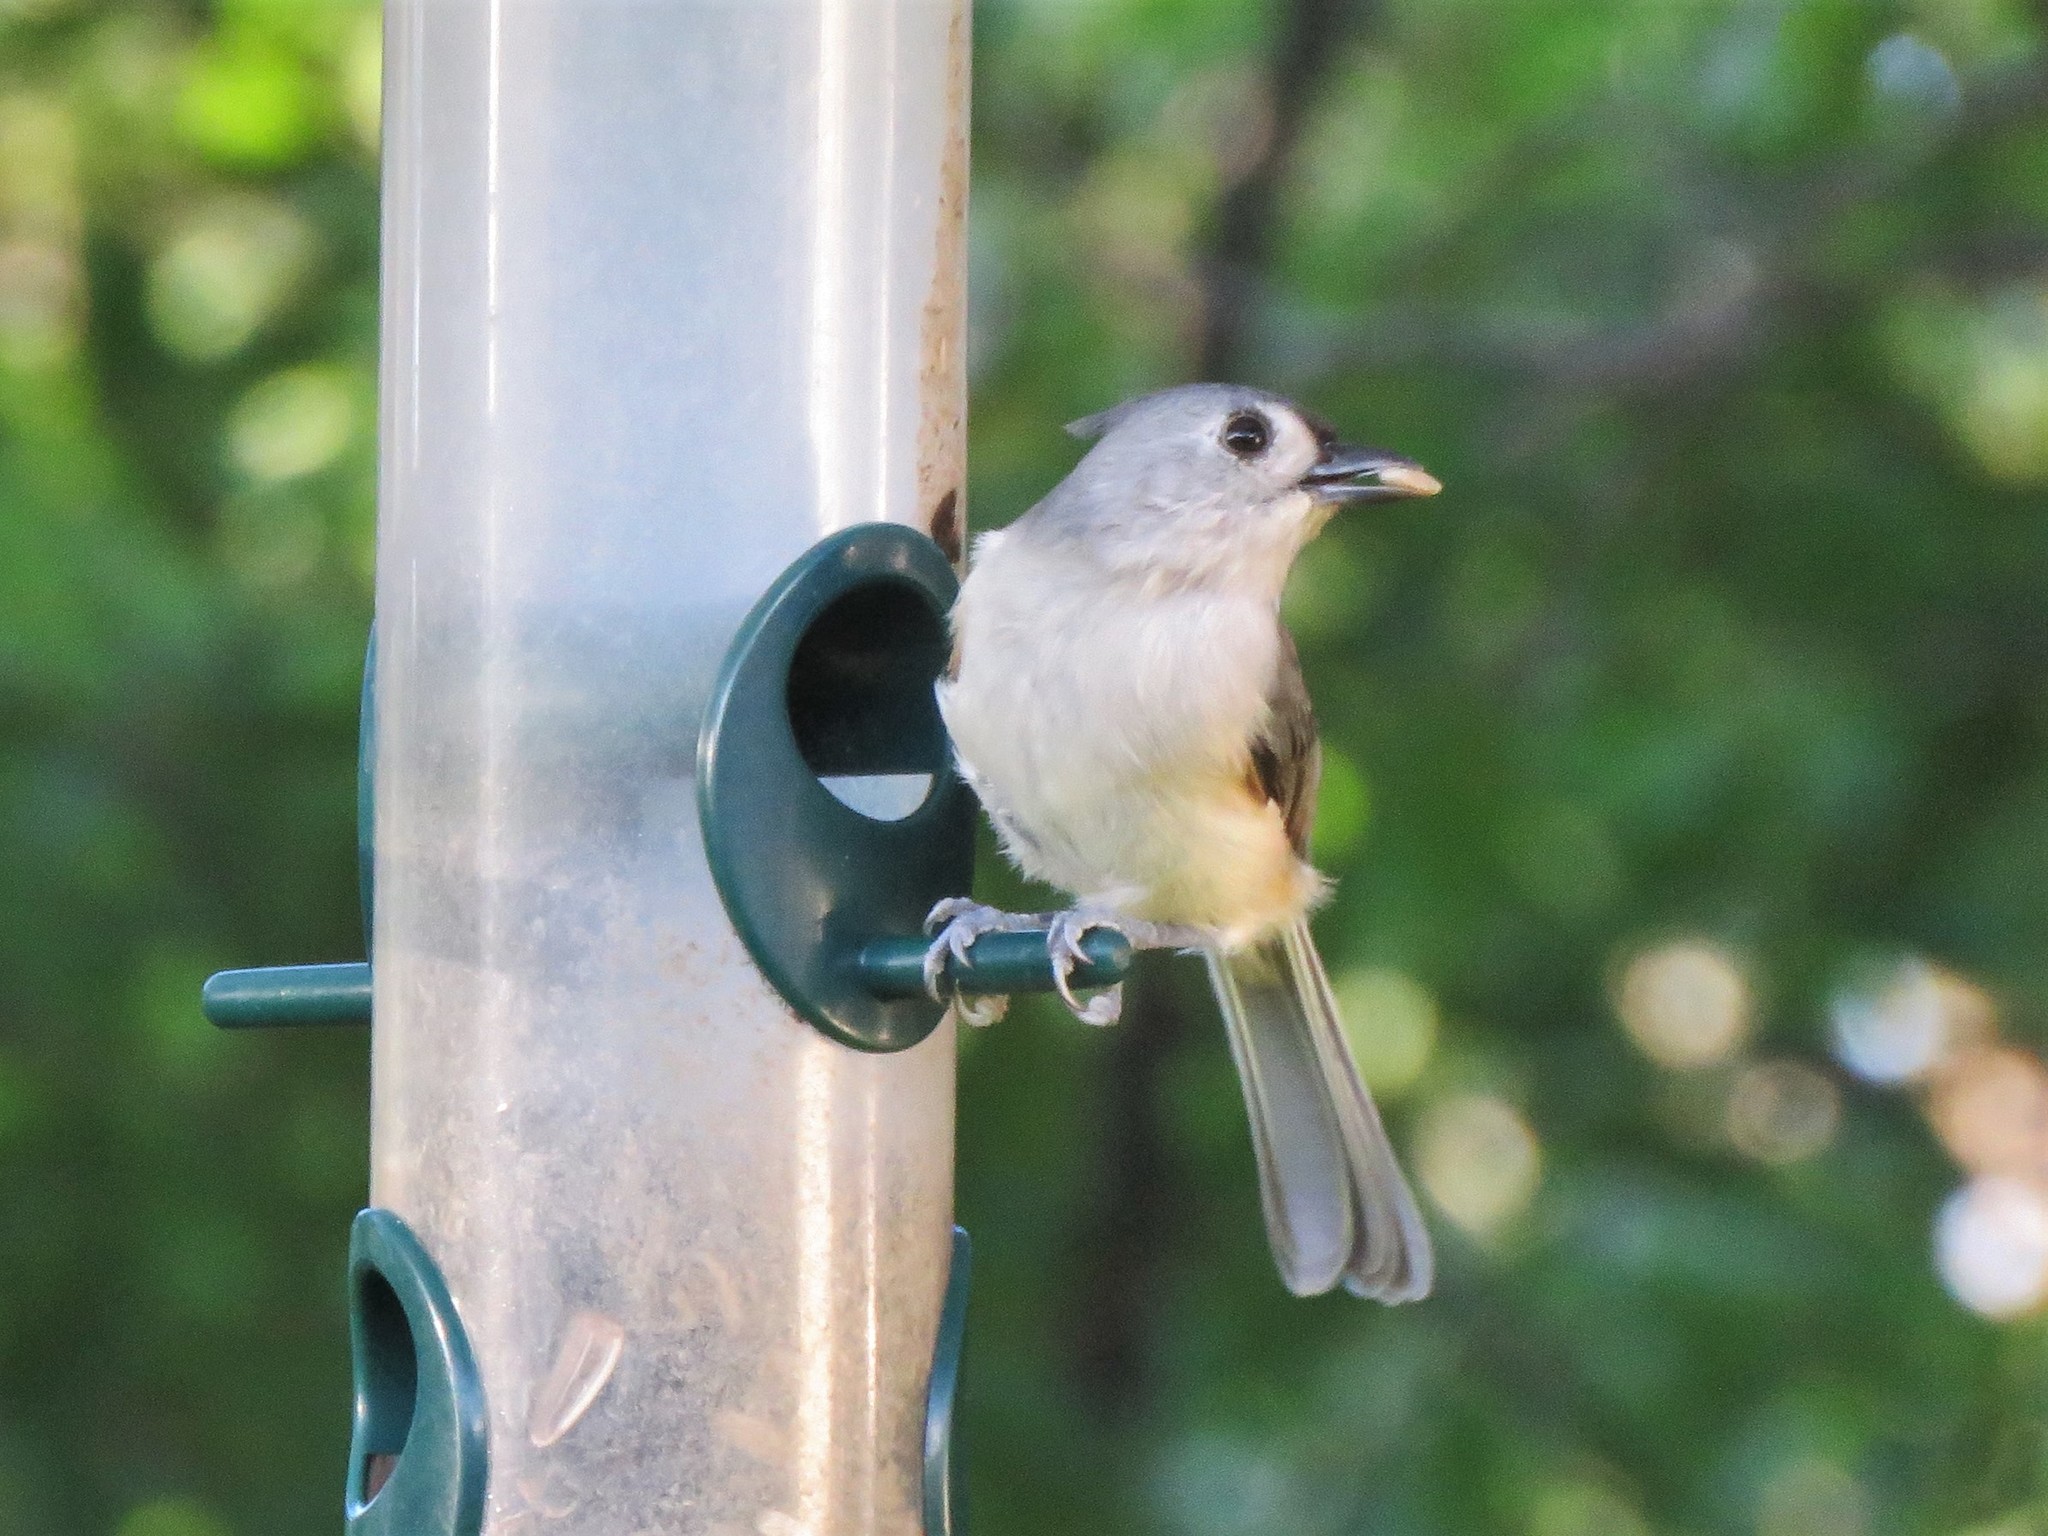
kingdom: Animalia
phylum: Chordata
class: Aves
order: Passeriformes
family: Paridae
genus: Baeolophus
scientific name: Baeolophus bicolor
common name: Tufted titmouse
